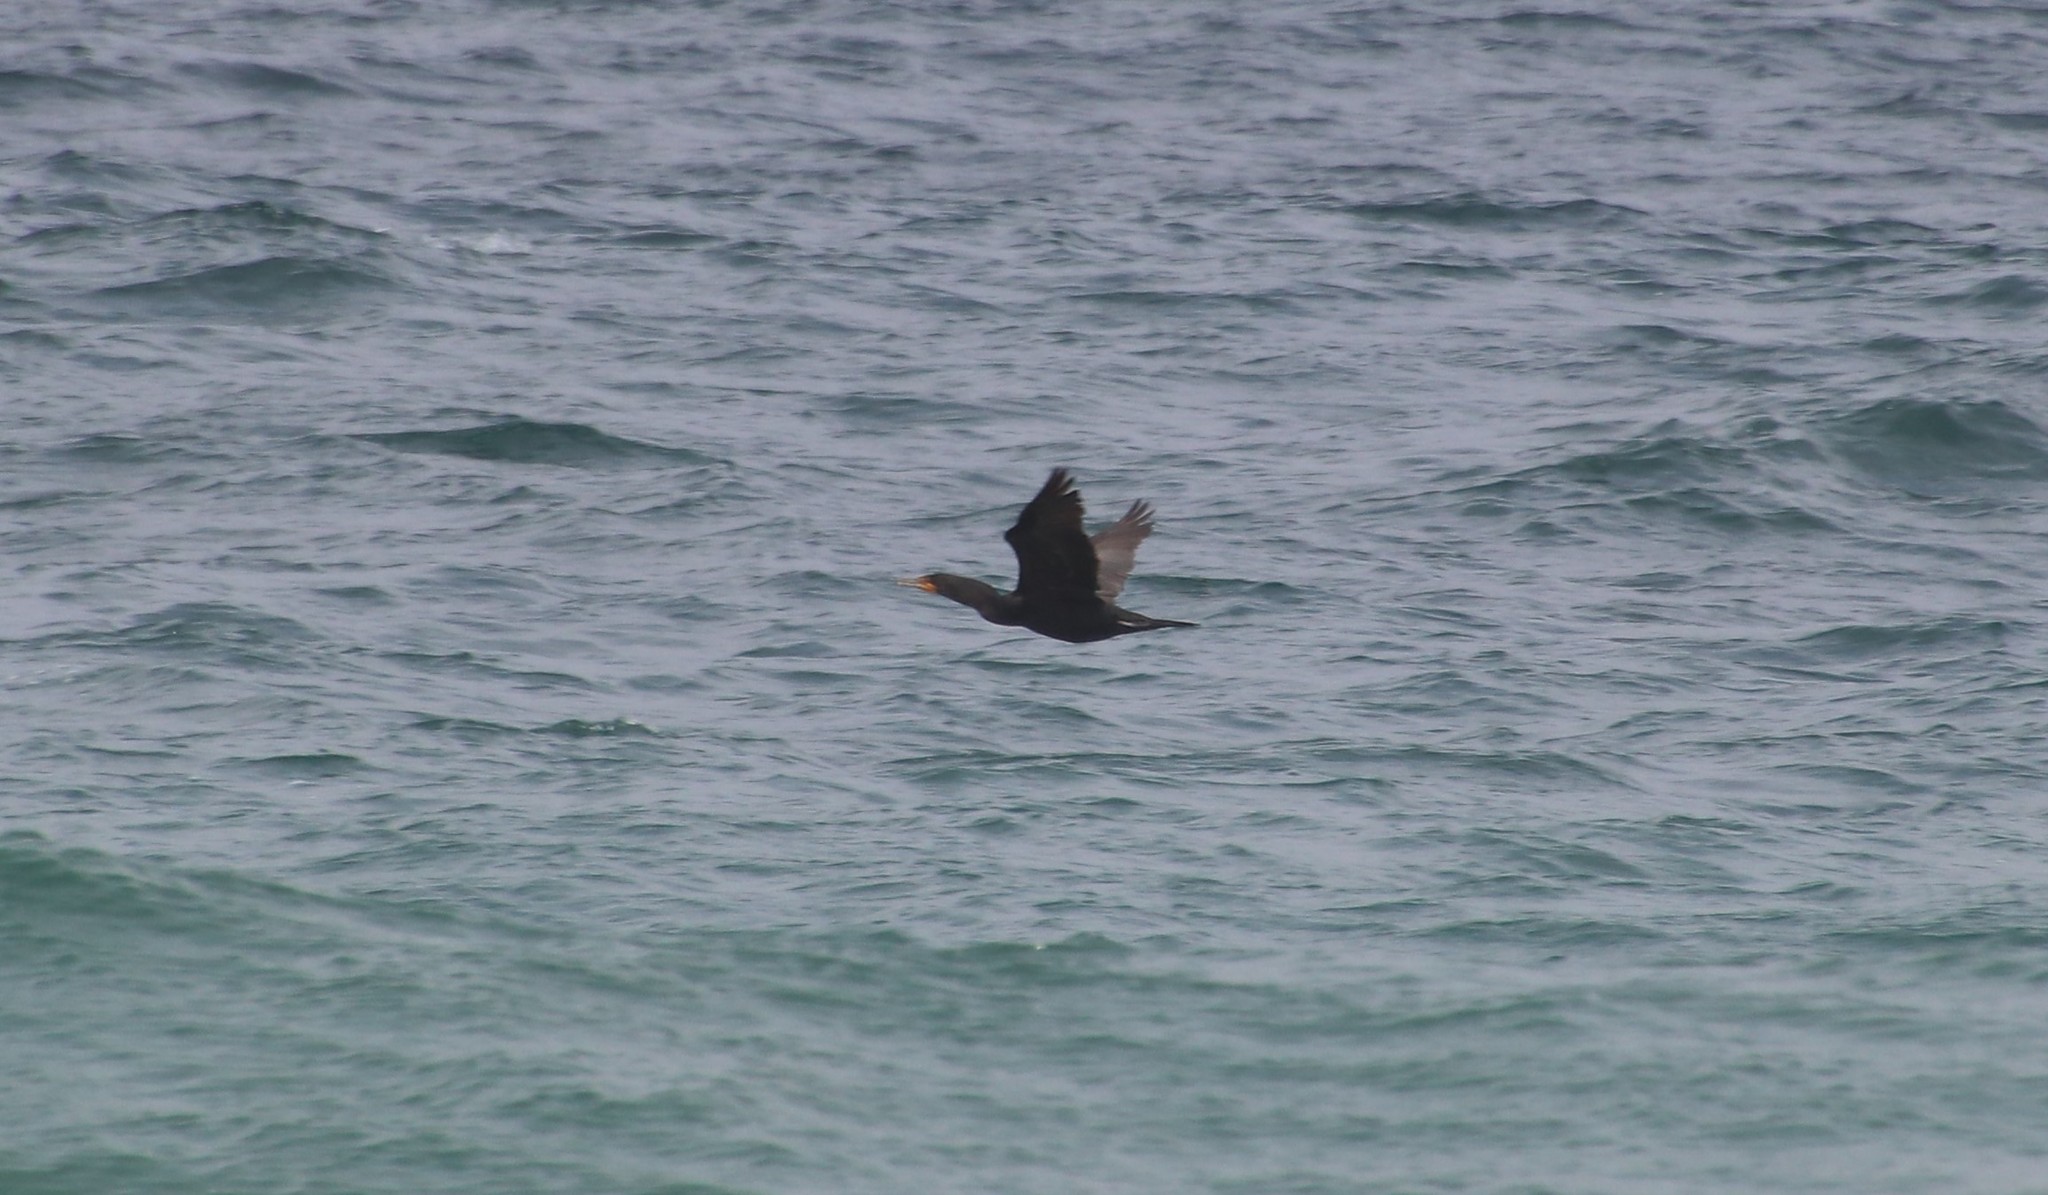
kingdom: Animalia
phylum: Chordata
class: Aves
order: Suliformes
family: Phalacrocoracidae
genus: Phalacrocorax
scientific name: Phalacrocorax auritus
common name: Double-crested cormorant
